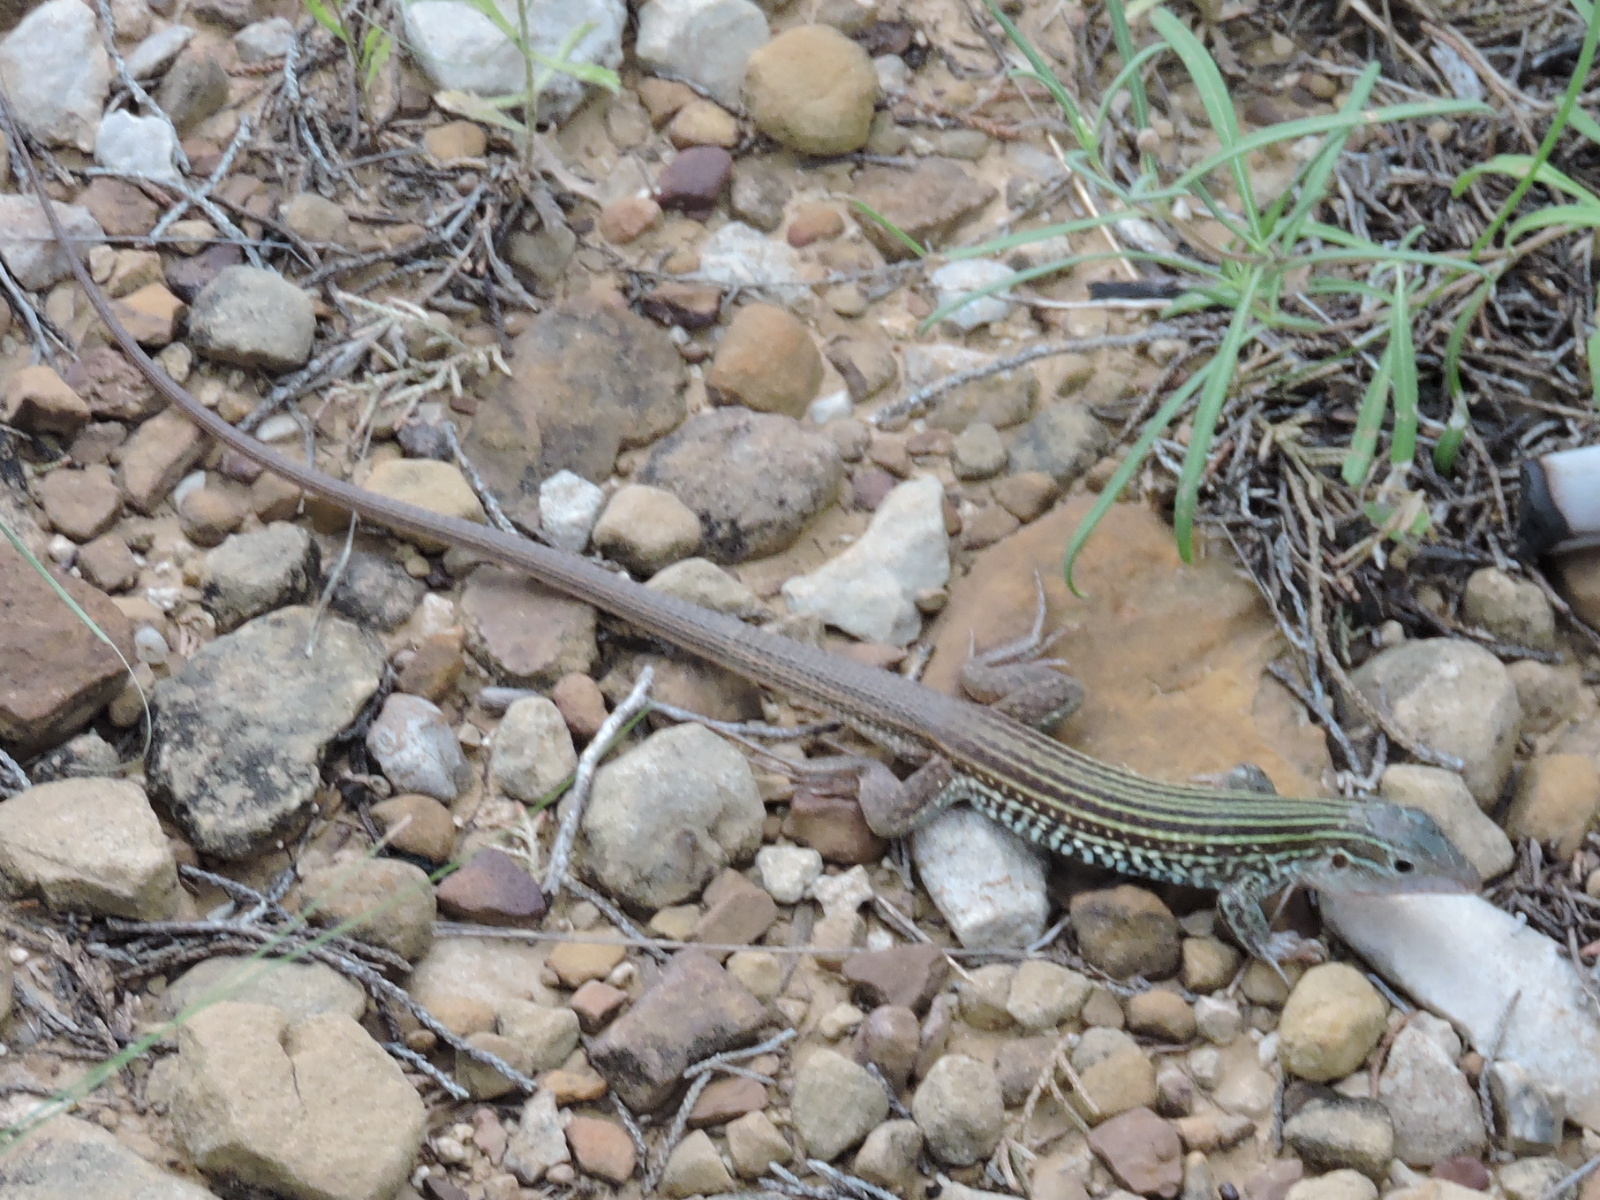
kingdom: Animalia
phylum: Chordata
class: Squamata
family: Teiidae
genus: Aspidoscelis
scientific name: Aspidoscelis gularis
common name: Eastern spotted whiptail
